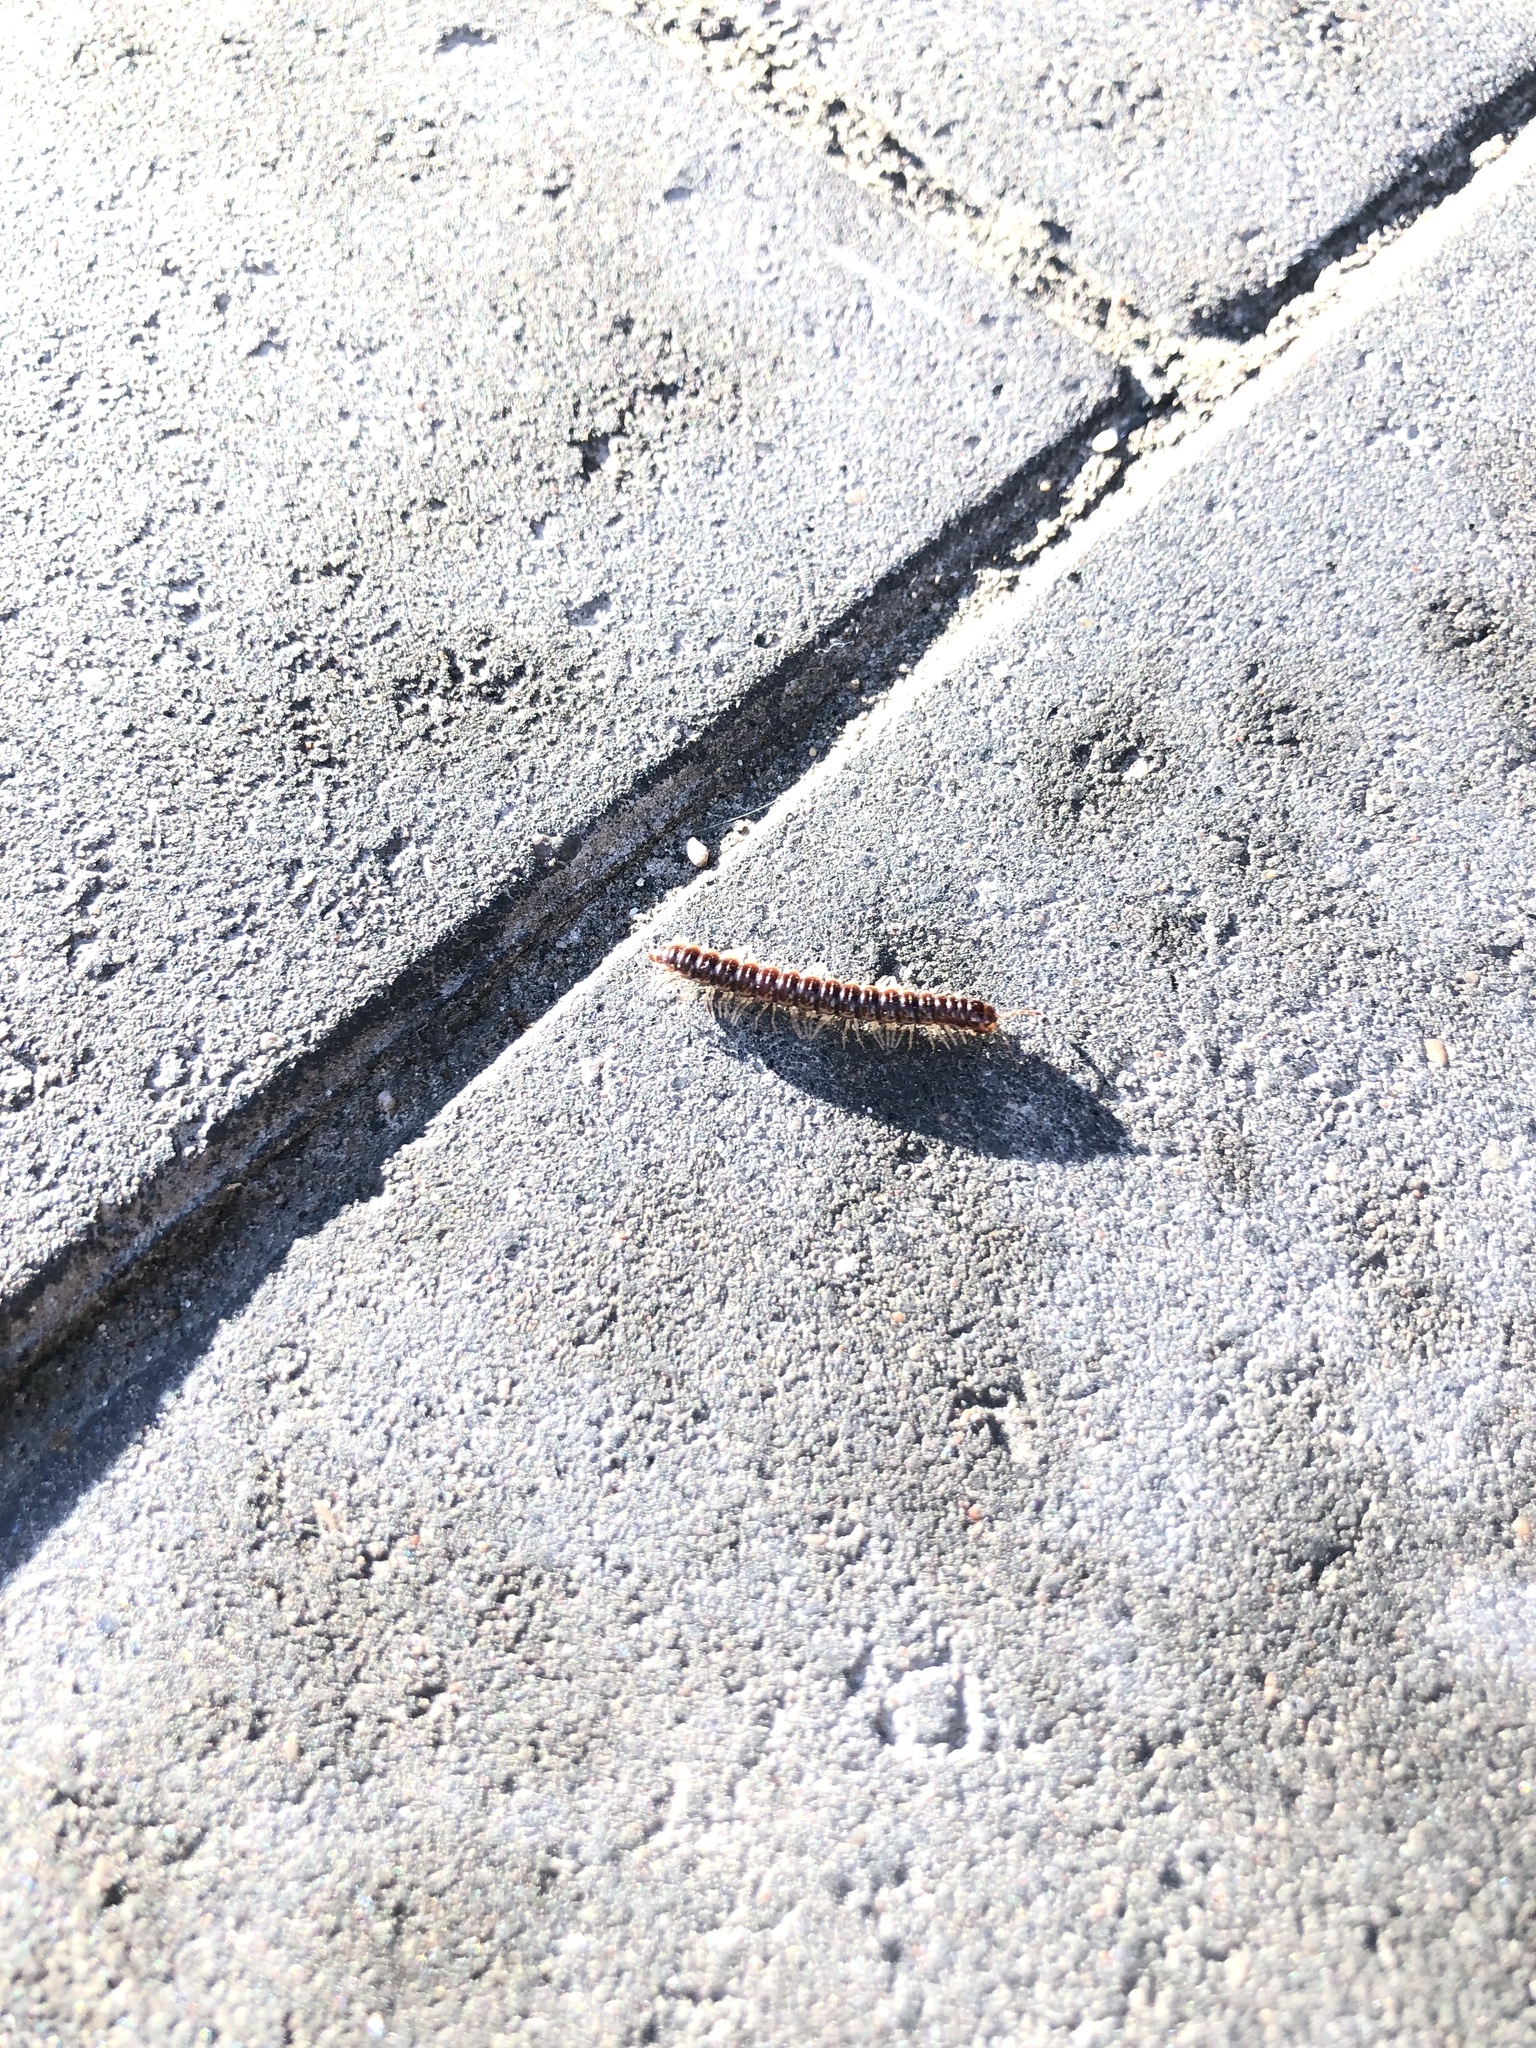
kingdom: Animalia
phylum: Arthropoda
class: Diplopoda
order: Polydesmida
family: Paradoxosomatidae
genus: Oxidus
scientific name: Oxidus gracilis
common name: Greenhouse millipede
